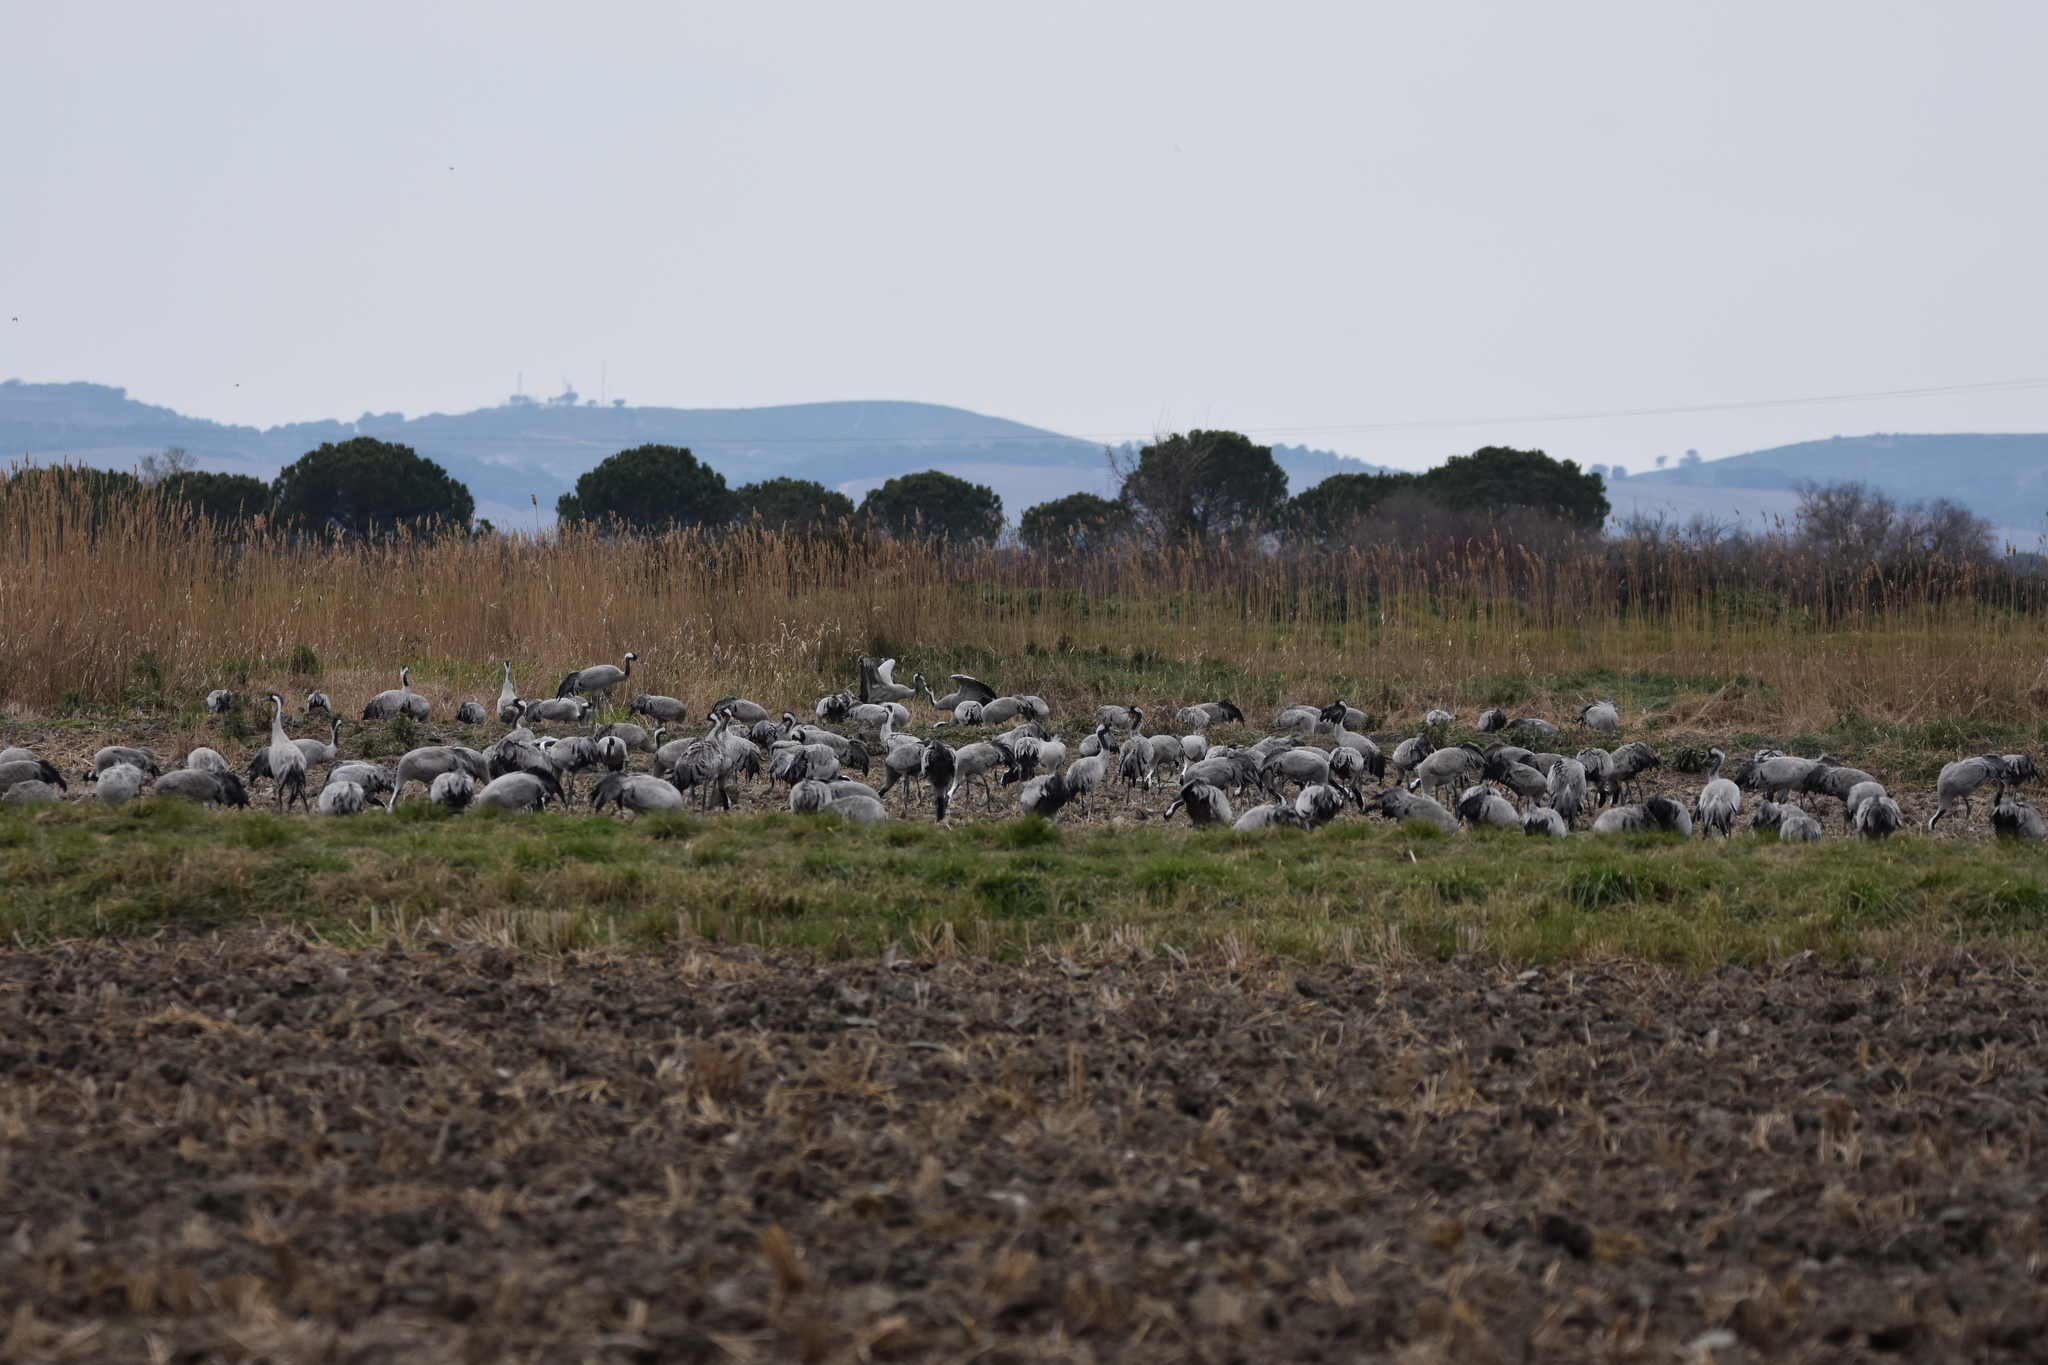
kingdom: Animalia
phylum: Chordata
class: Aves
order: Gruiformes
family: Gruidae
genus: Grus
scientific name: Grus grus
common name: Common crane
